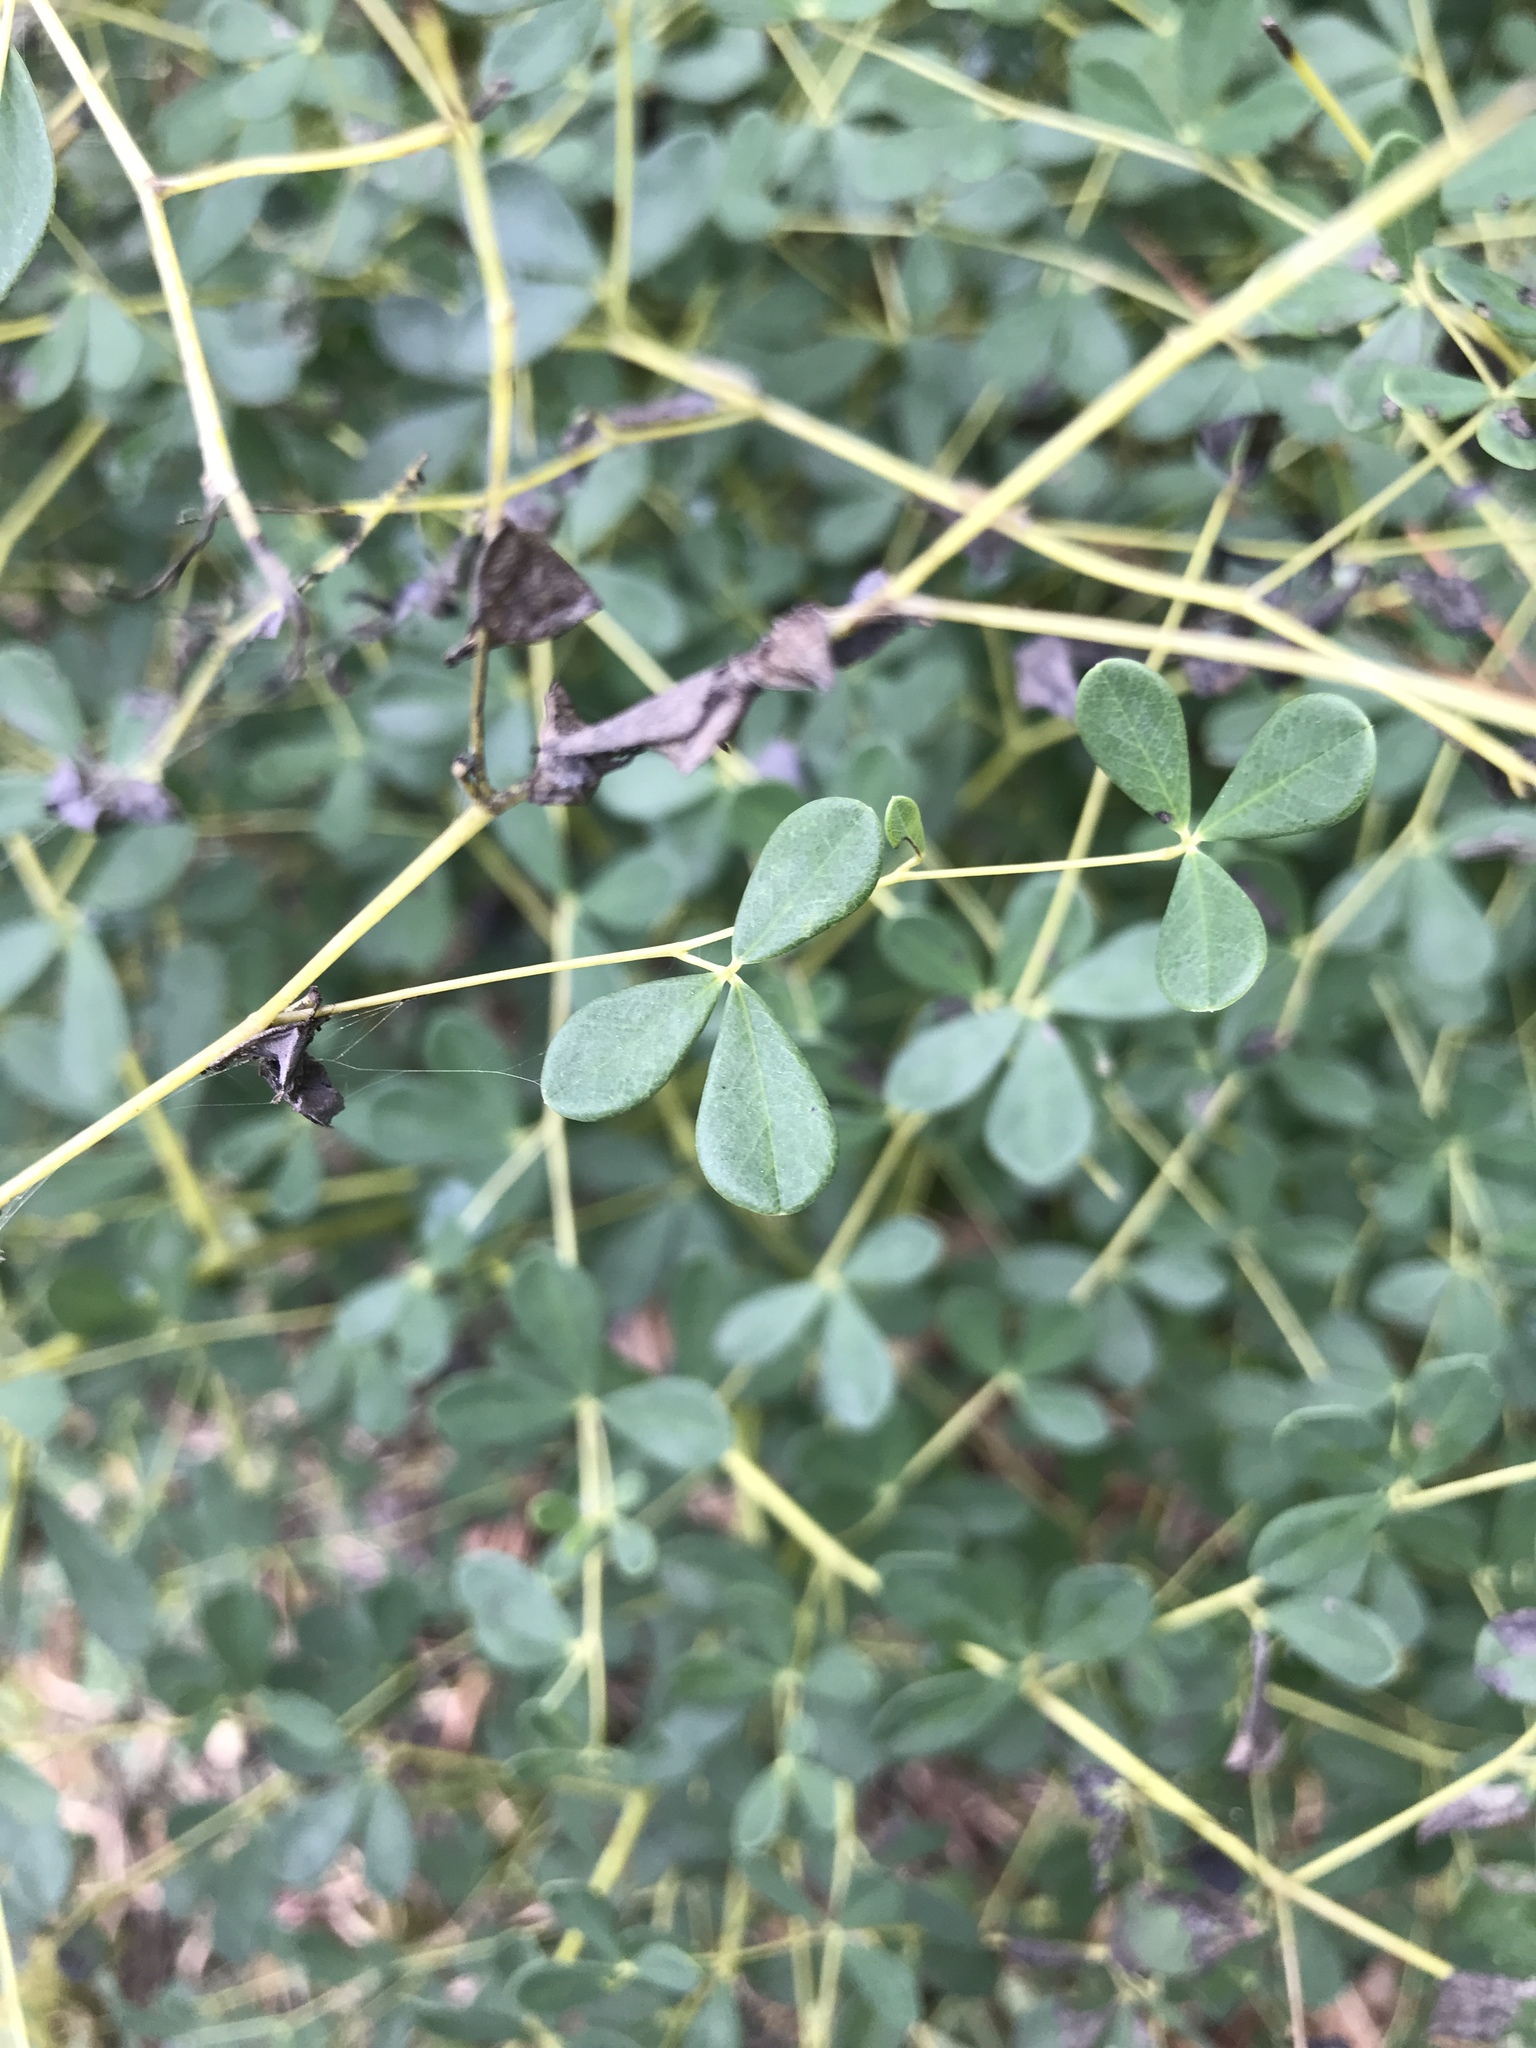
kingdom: Plantae
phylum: Tracheophyta
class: Magnoliopsida
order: Fabales
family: Fabaceae
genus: Baptisia
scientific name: Baptisia tinctoria
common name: Wild indigo
